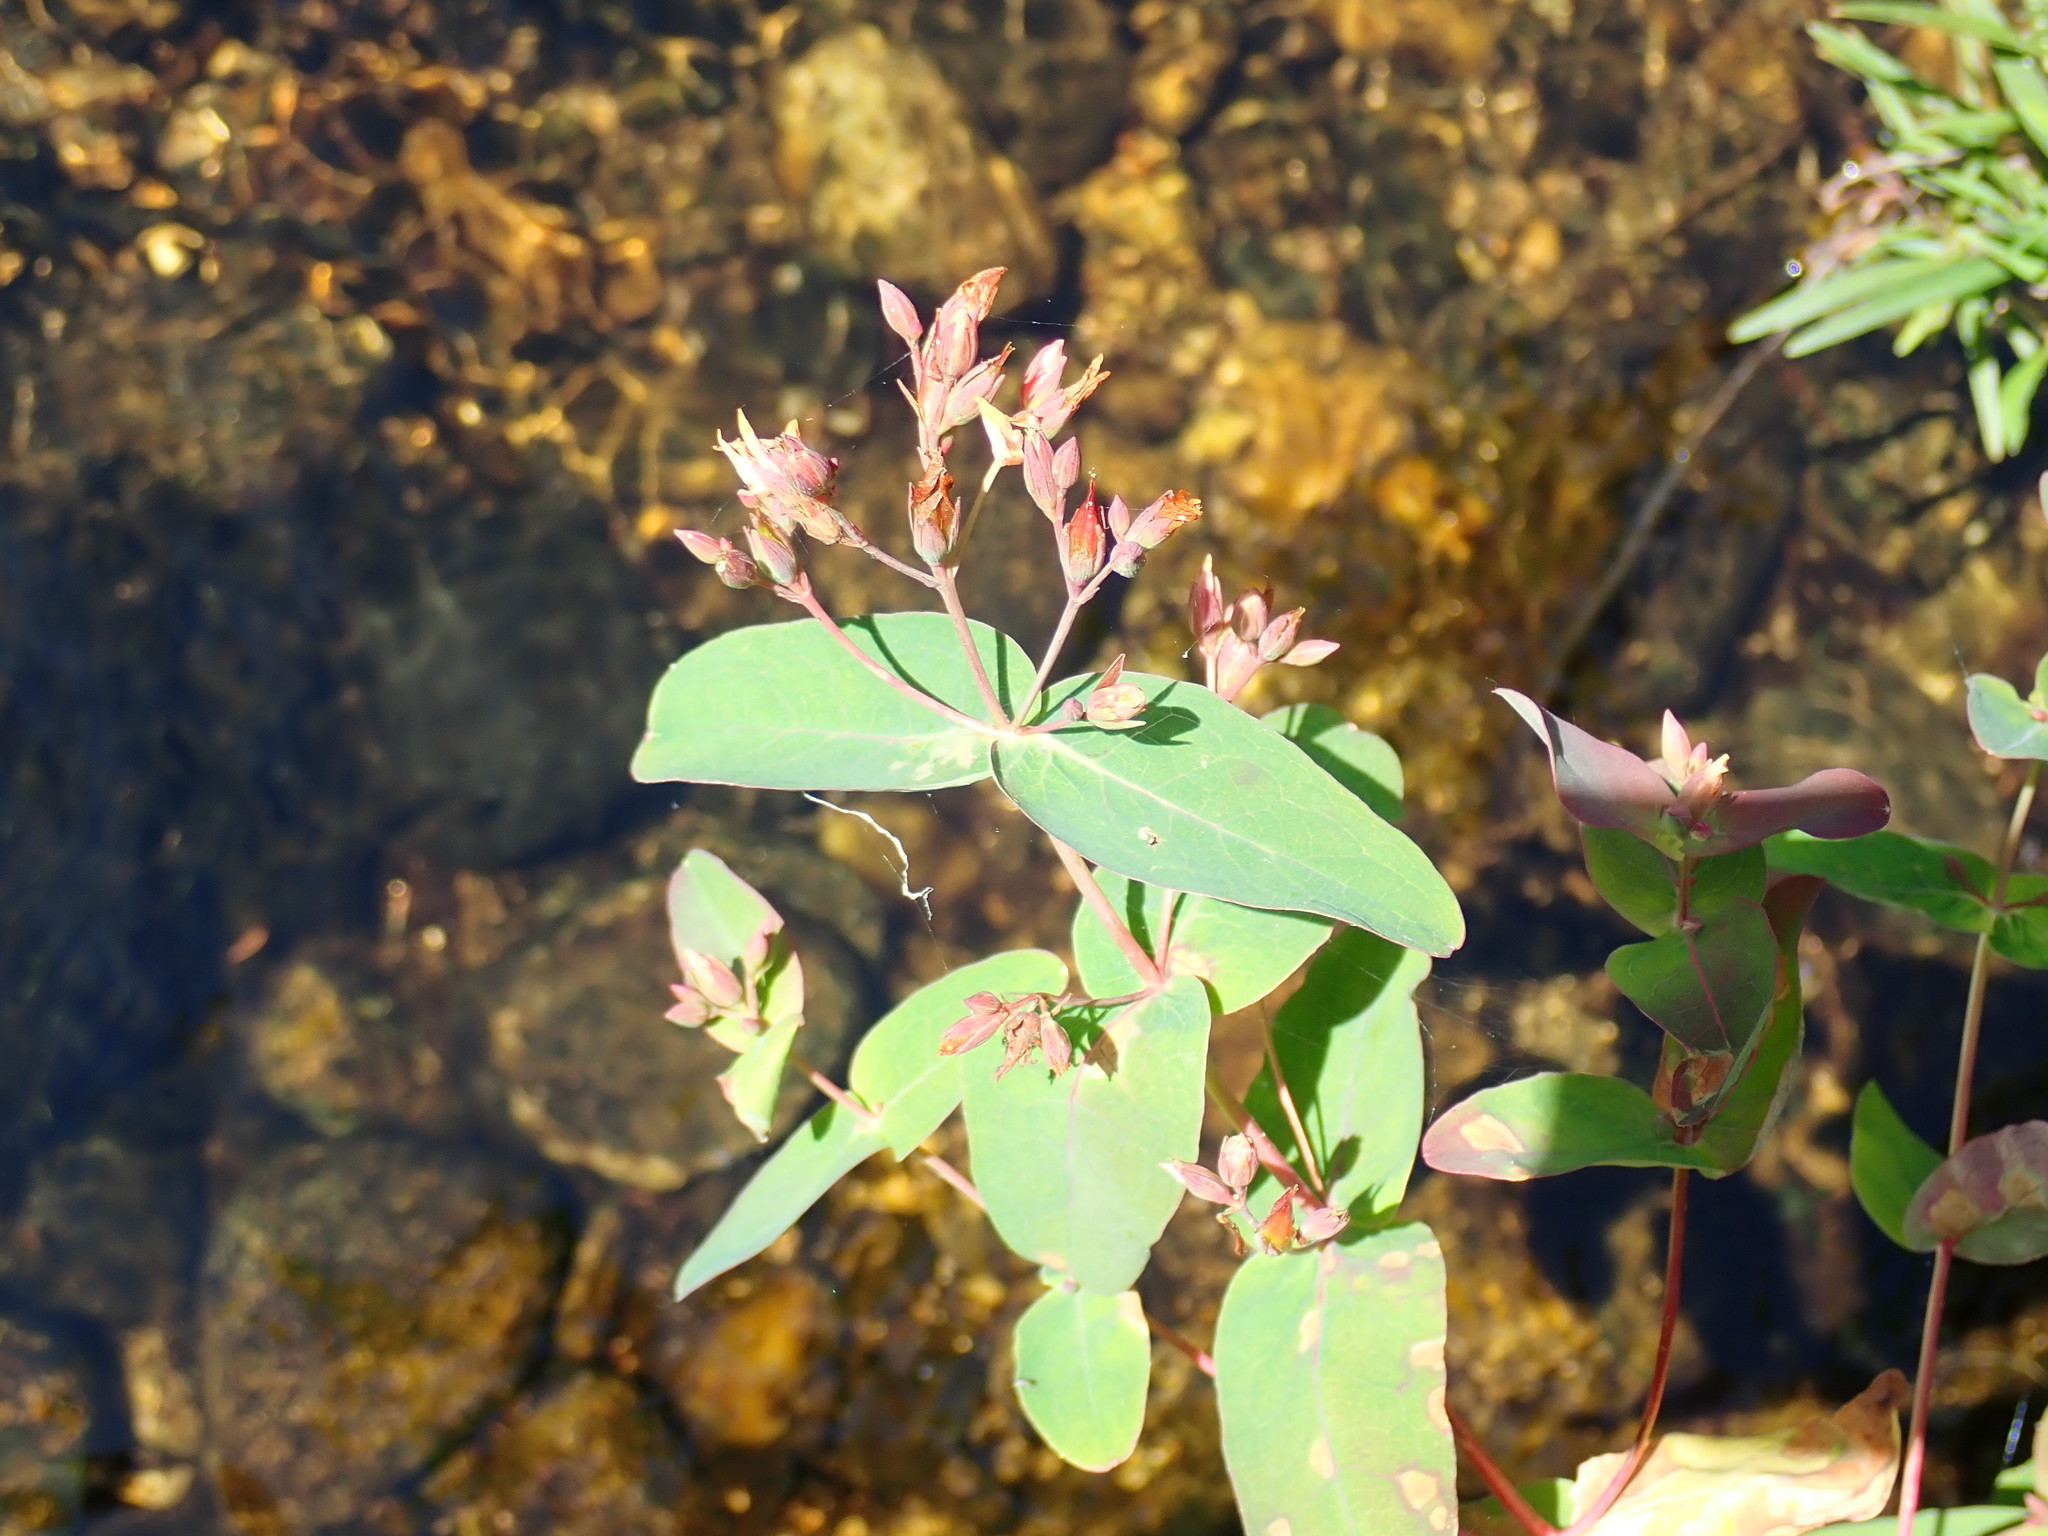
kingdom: Plantae
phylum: Tracheophyta
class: Magnoliopsida
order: Malpighiales
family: Hypericaceae
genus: Triadenum
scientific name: Triadenum virginicum
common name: Marsh st. john's-wort
